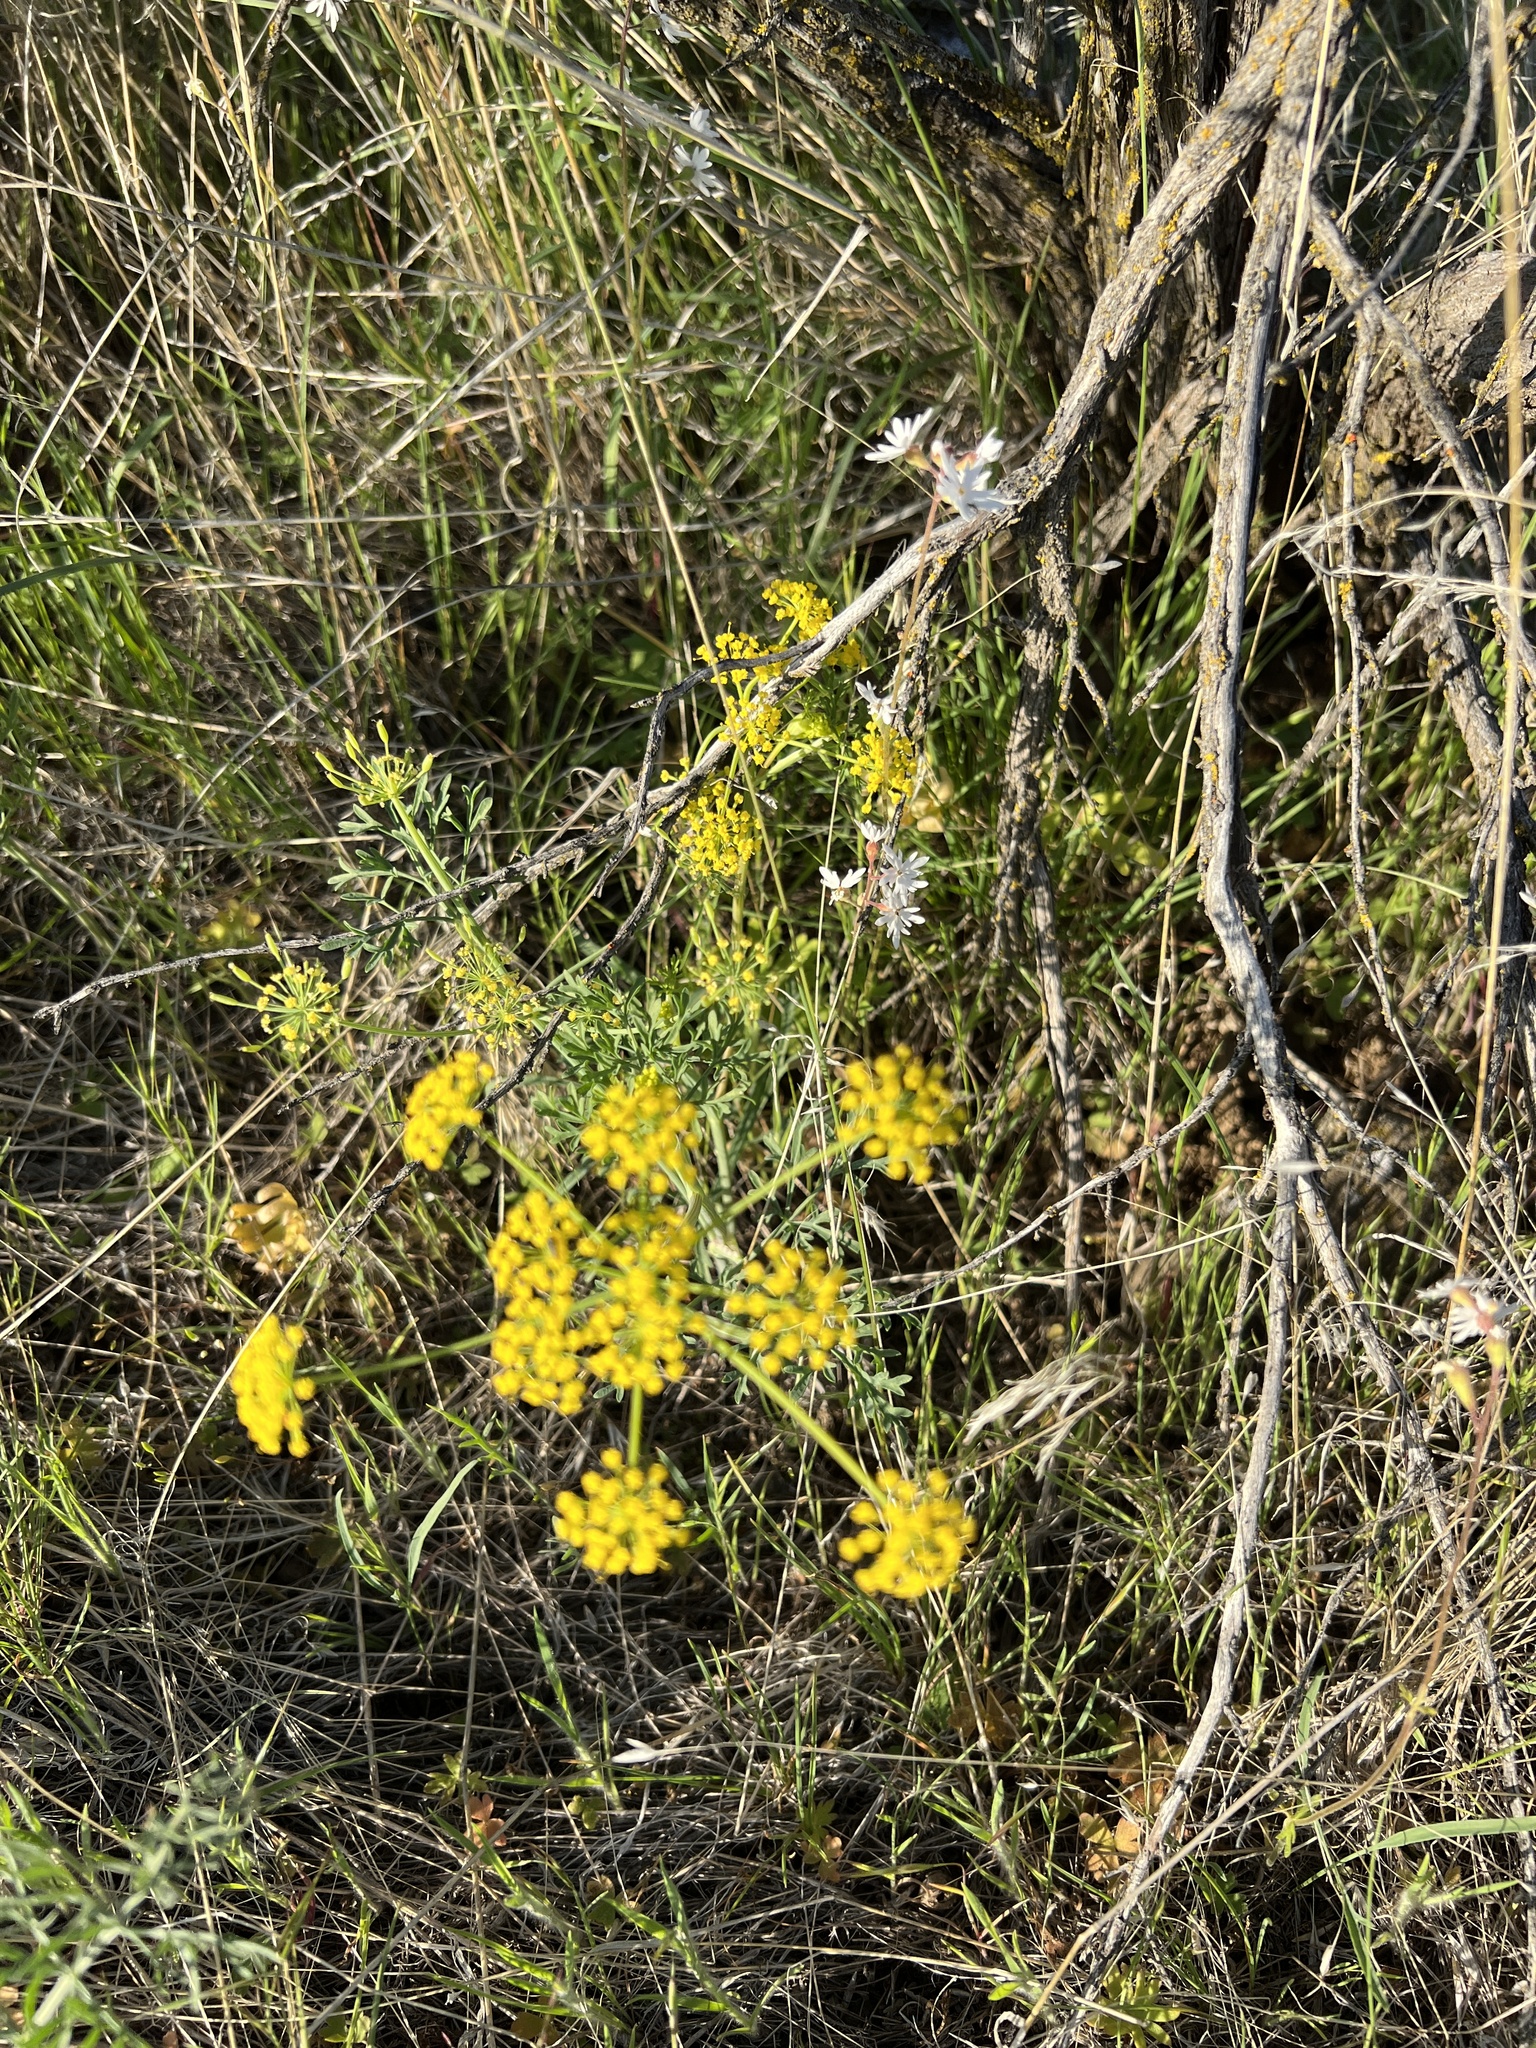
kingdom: Plantae
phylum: Tracheophyta
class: Magnoliopsida
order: Apiales
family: Apiaceae
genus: Lomatium
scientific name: Lomatium ambiguum
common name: Lacy lomatium
